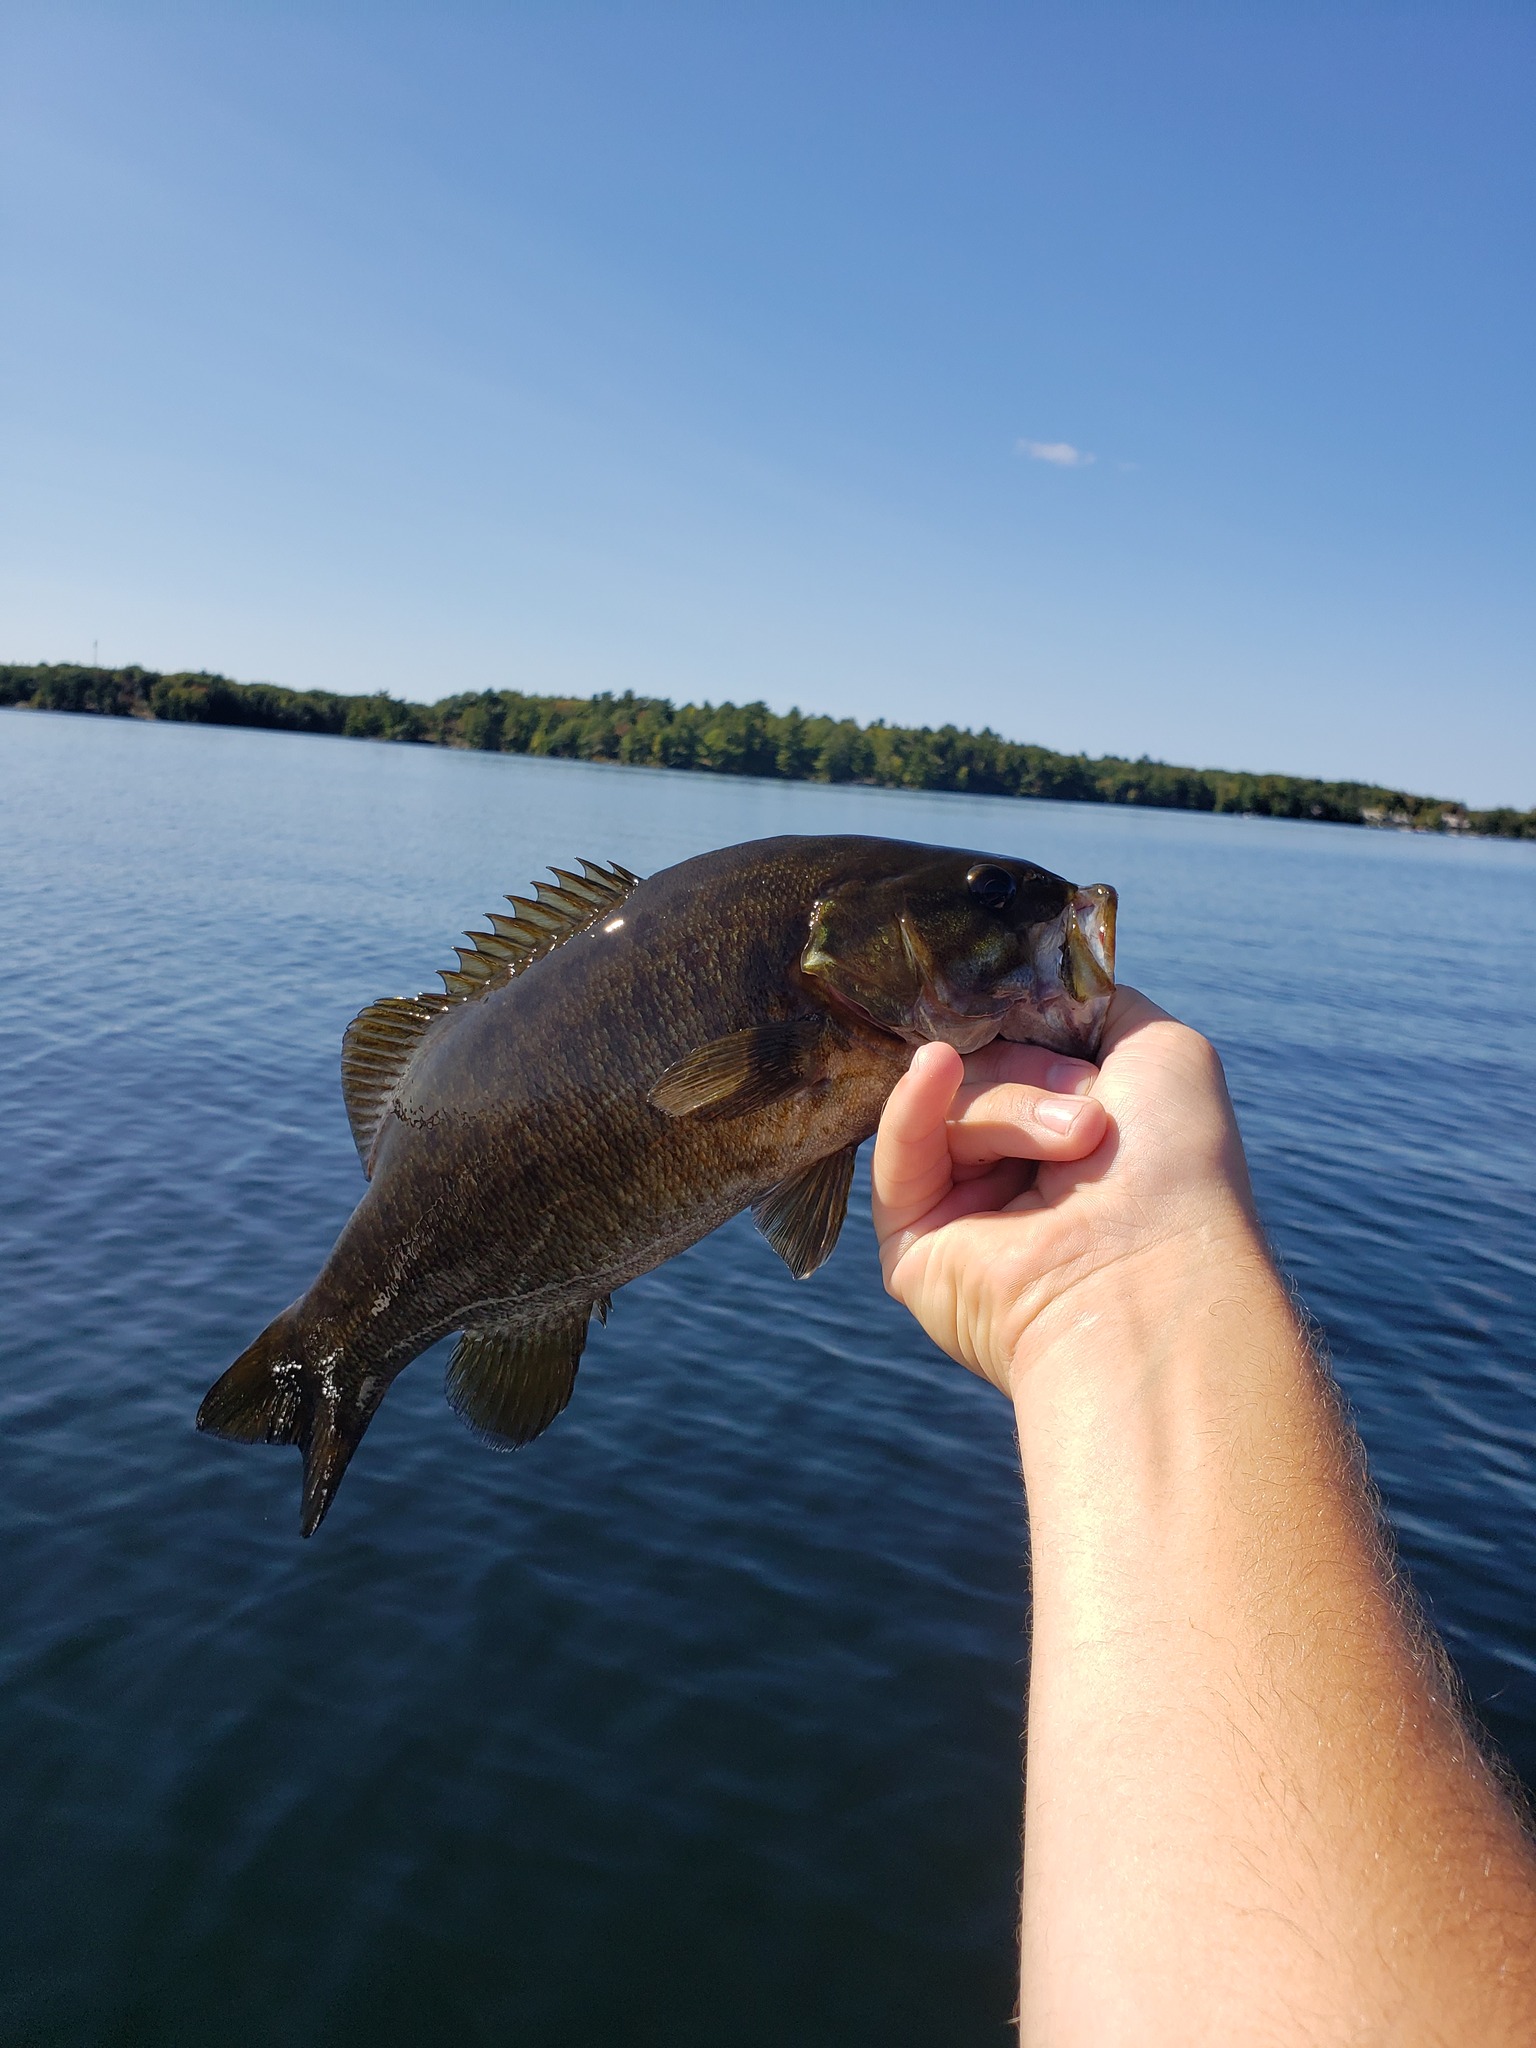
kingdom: Animalia
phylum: Chordata
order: Perciformes
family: Centrarchidae
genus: Micropterus
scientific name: Micropterus dolomieu
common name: Smallmouth bass
